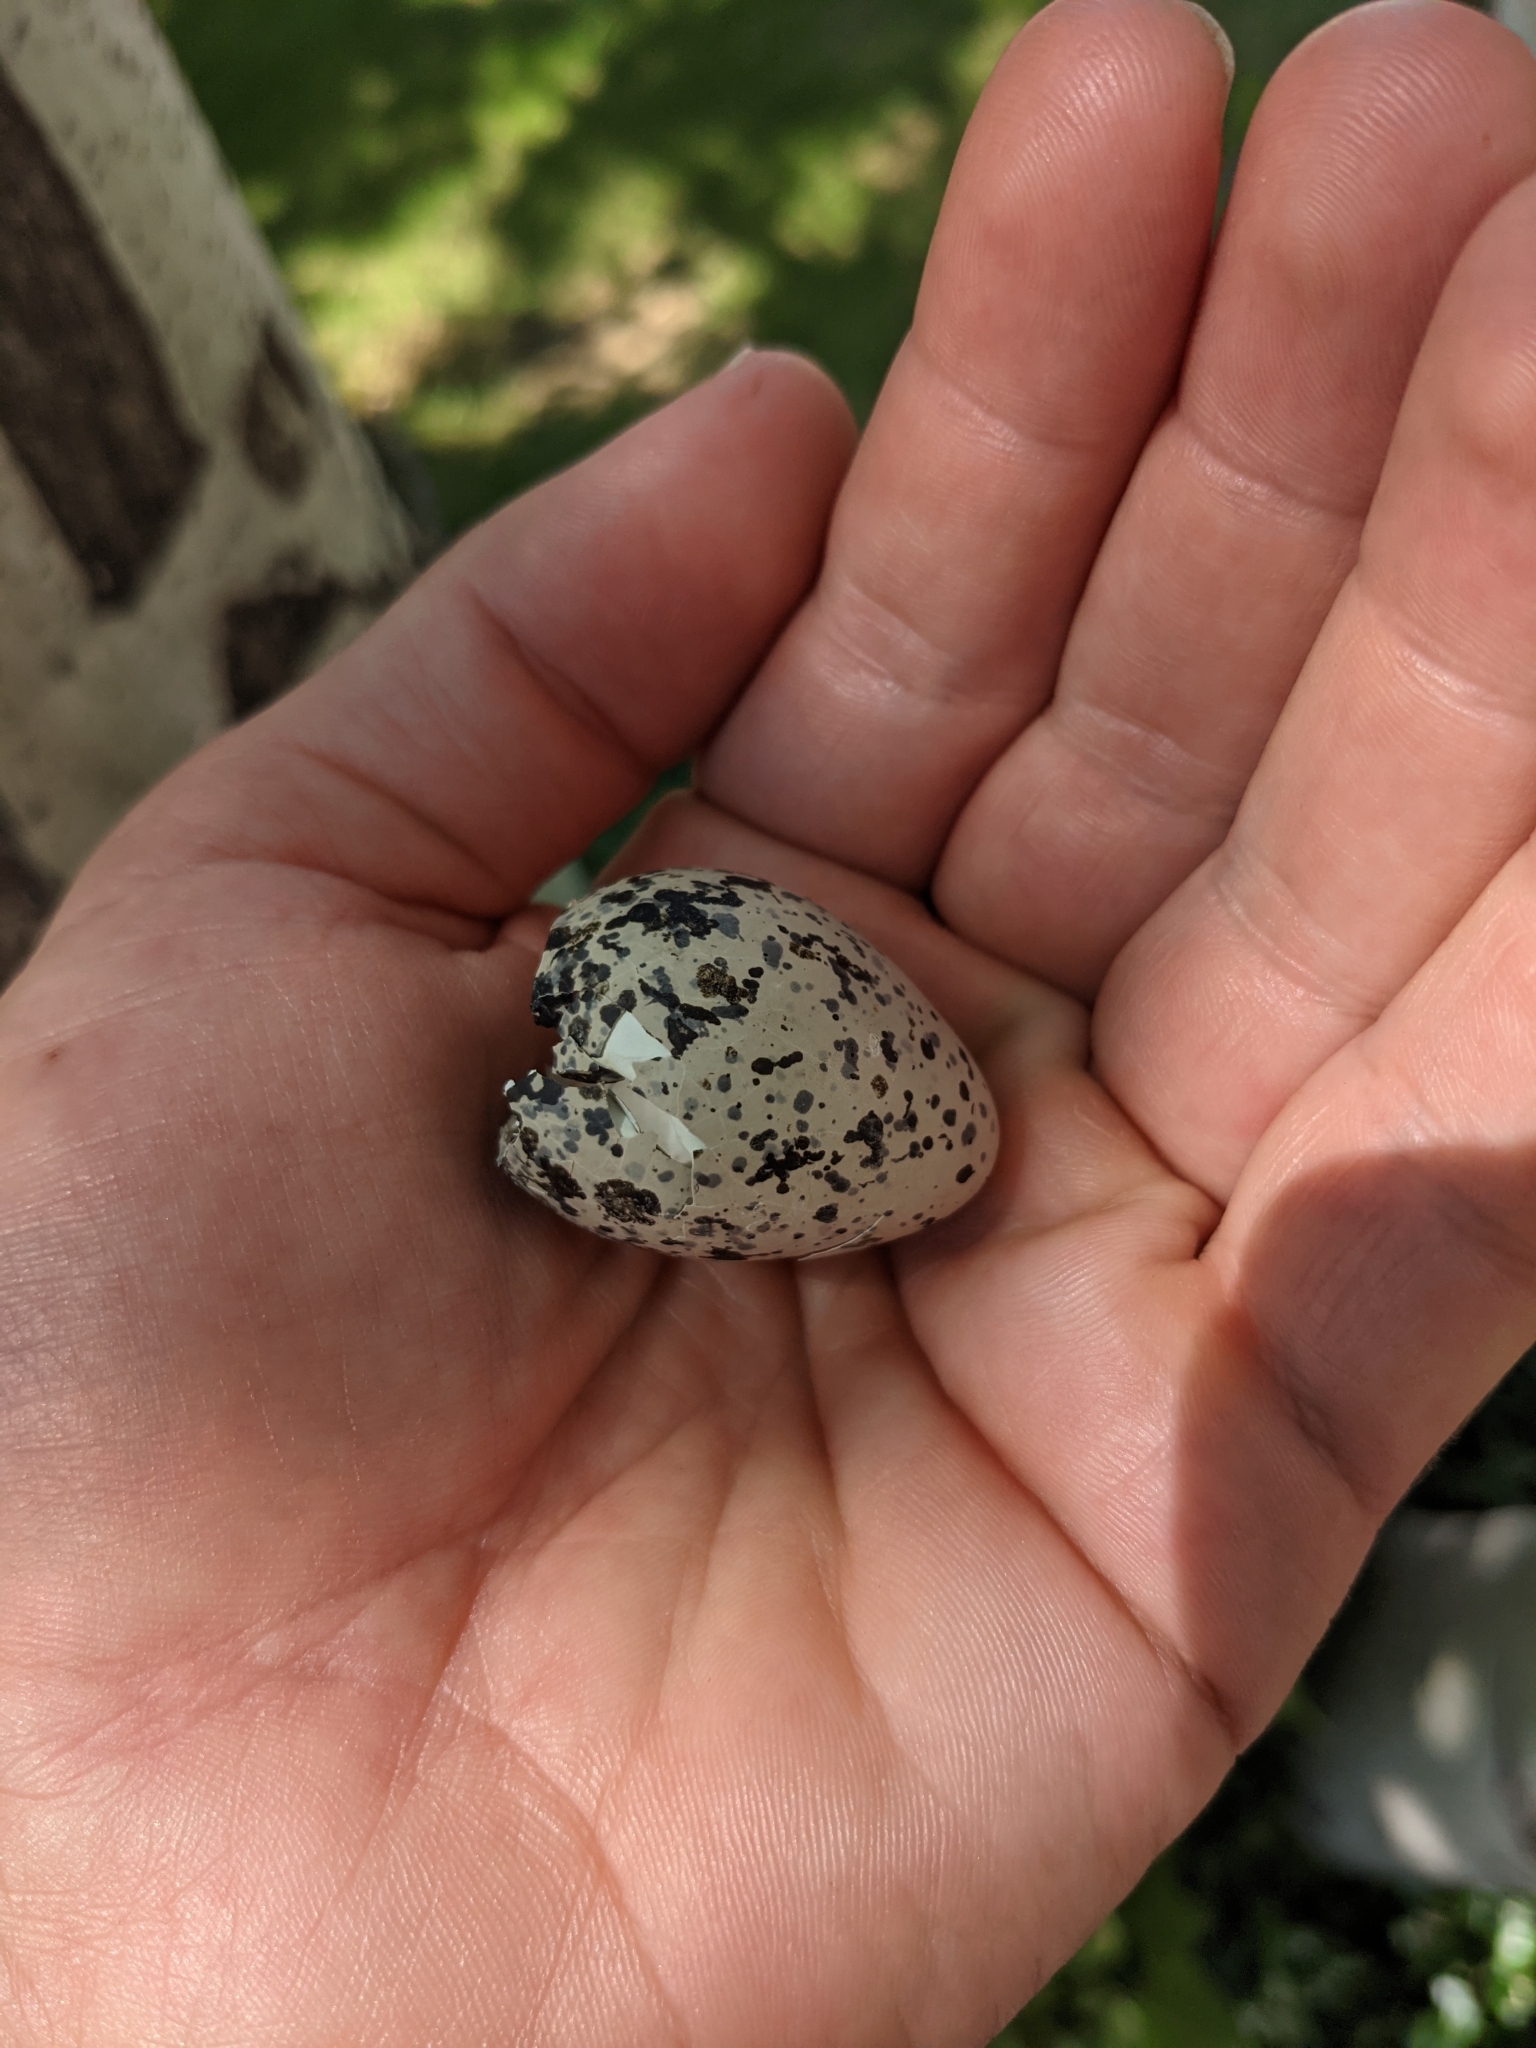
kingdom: Animalia
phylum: Chordata
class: Aves
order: Charadriiformes
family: Charadriidae
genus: Charadrius
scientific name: Charadrius vociferus
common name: Killdeer
